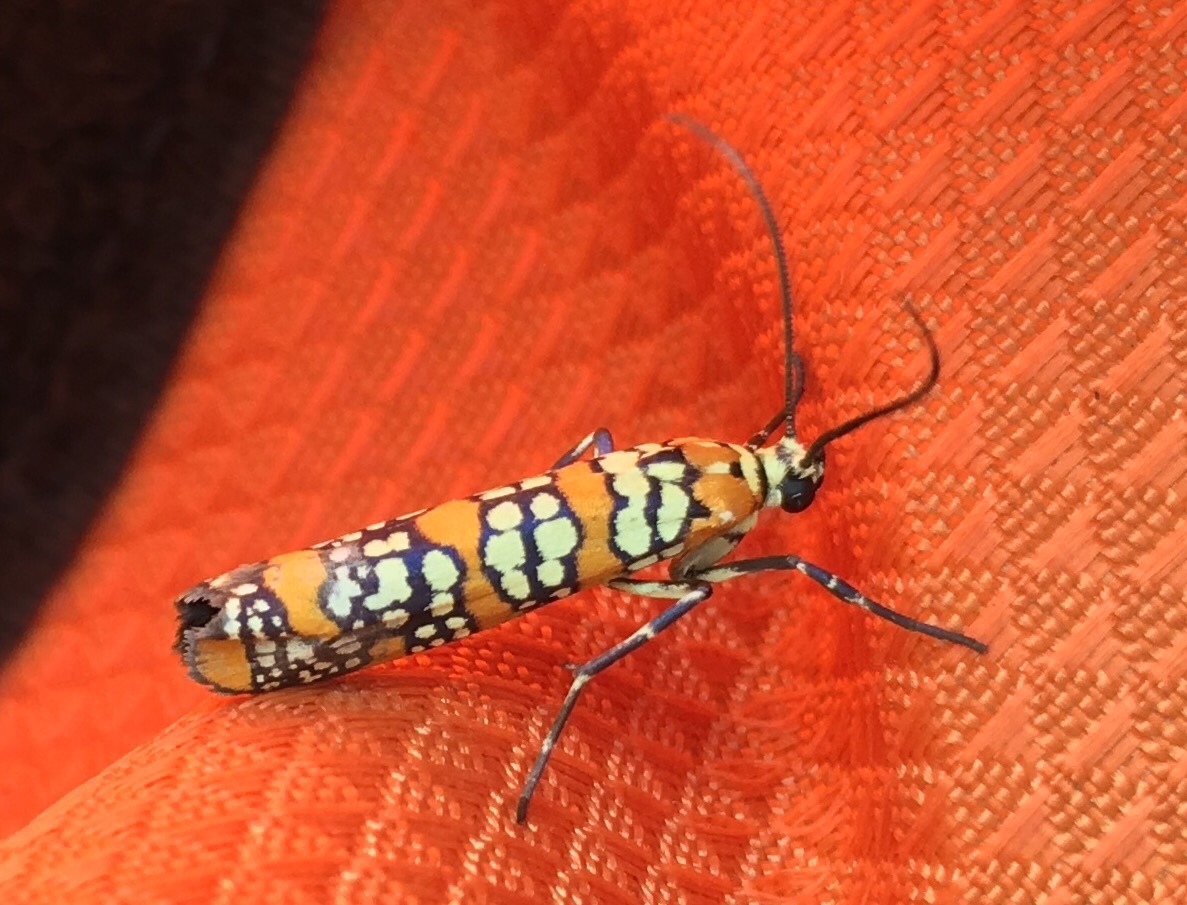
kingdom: Animalia
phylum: Arthropoda
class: Insecta
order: Lepidoptera
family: Attevidae
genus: Atteva
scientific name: Atteva punctella
